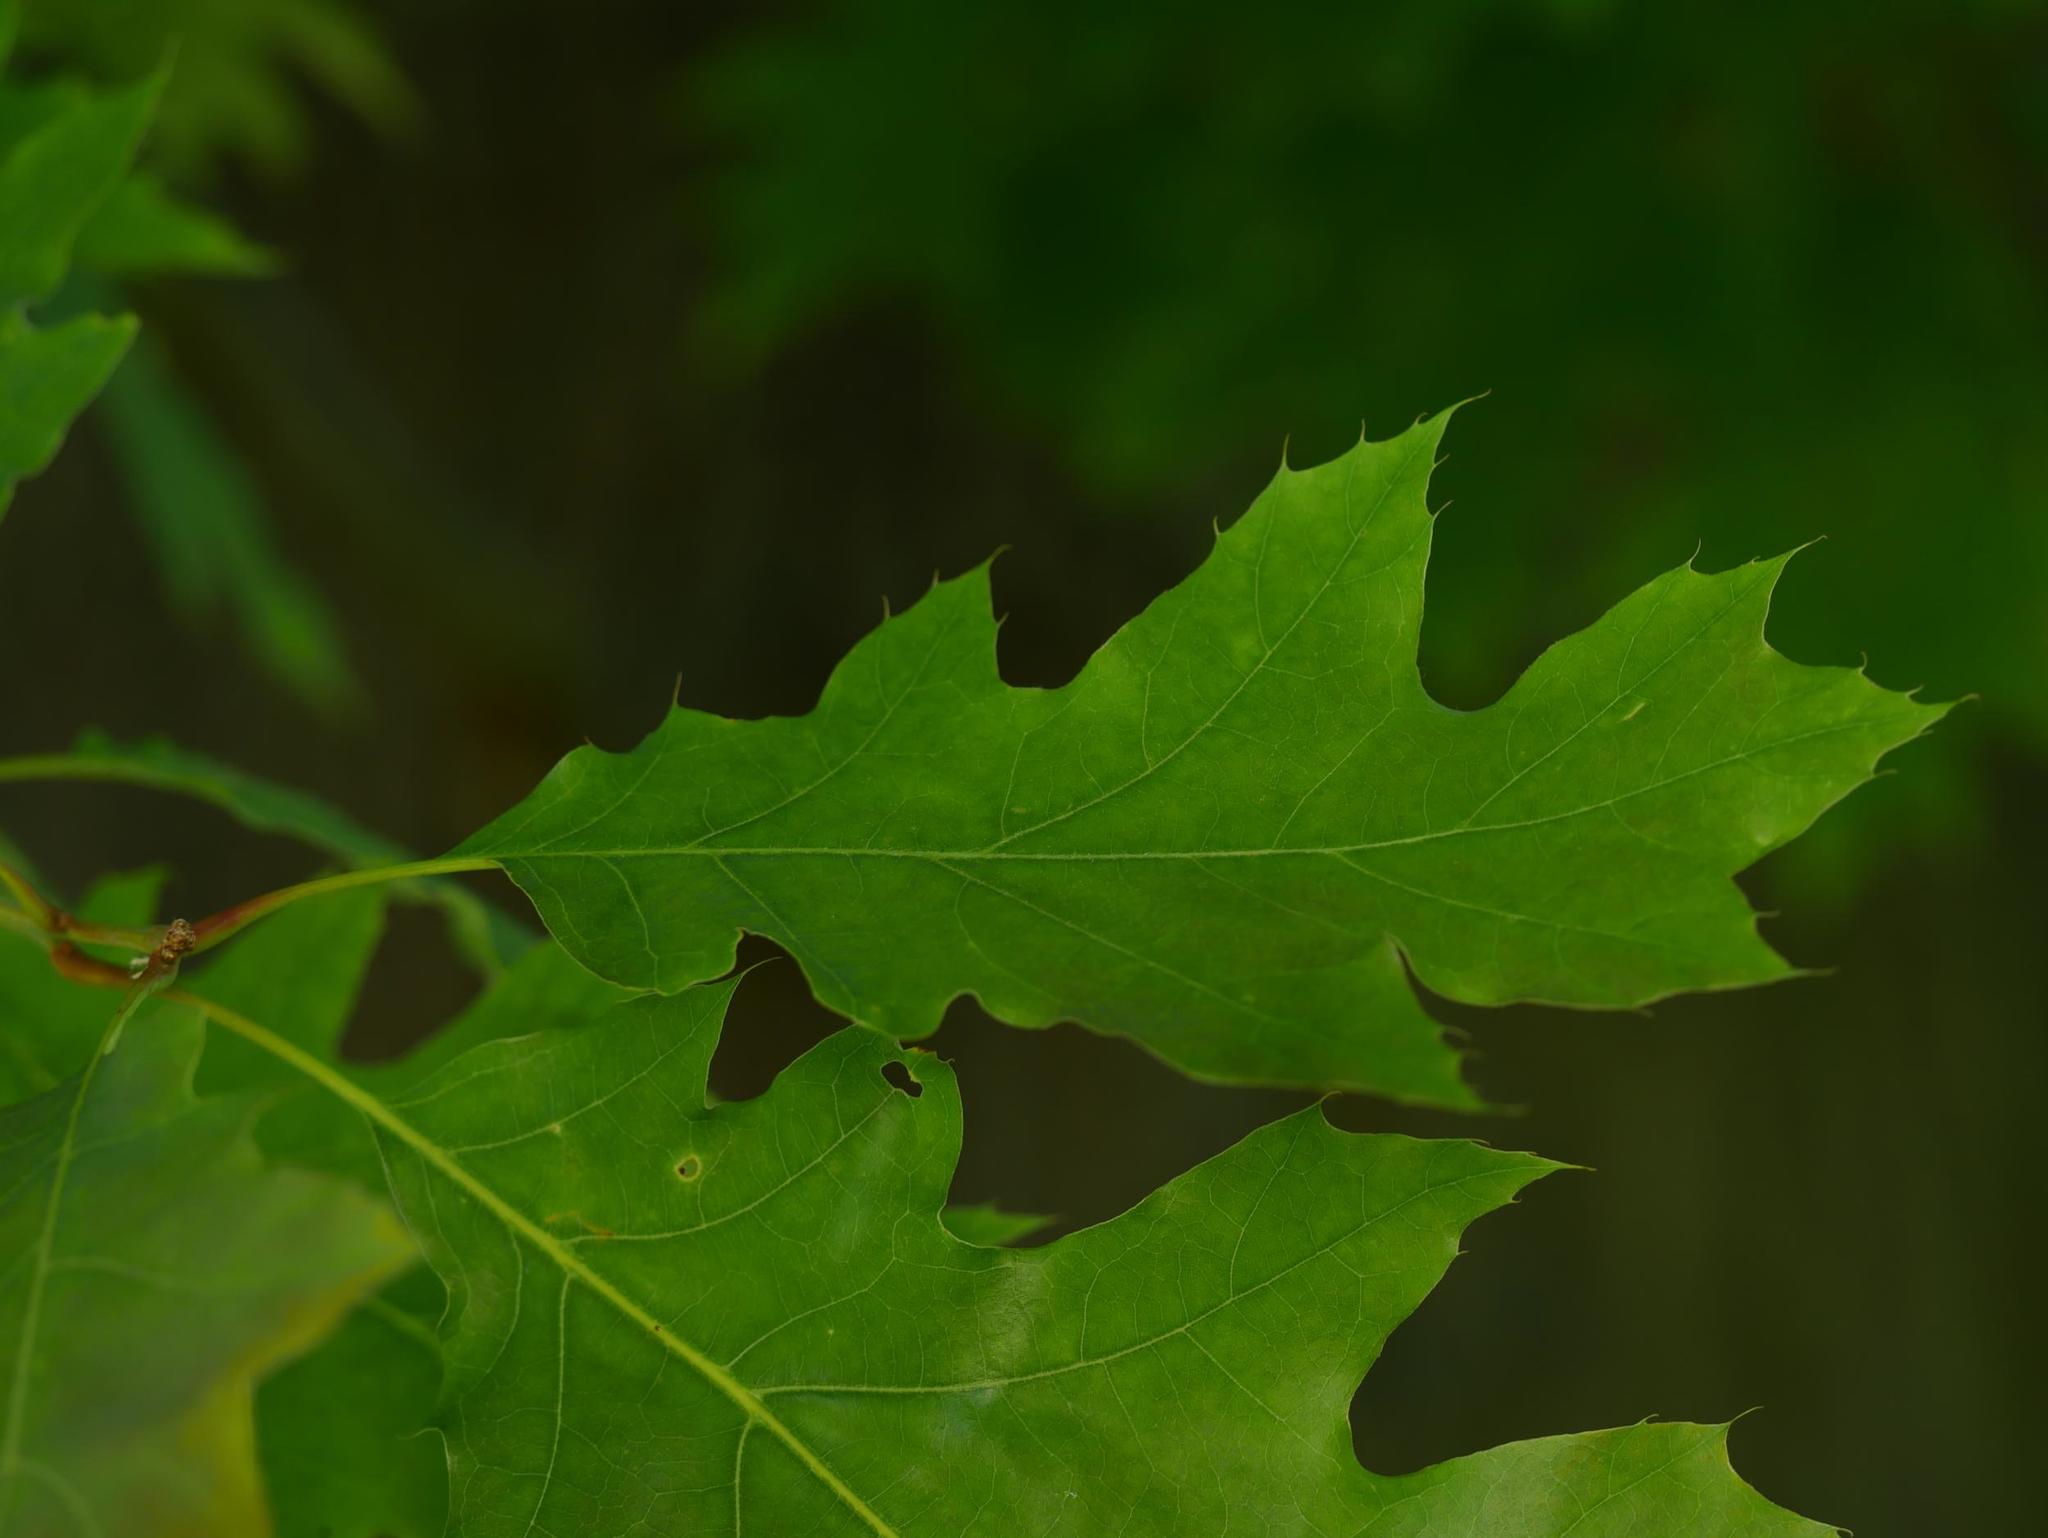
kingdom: Plantae
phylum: Tracheophyta
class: Magnoliopsida
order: Fagales
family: Fagaceae
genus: Quercus
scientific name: Quercus rubra
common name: Red oak
